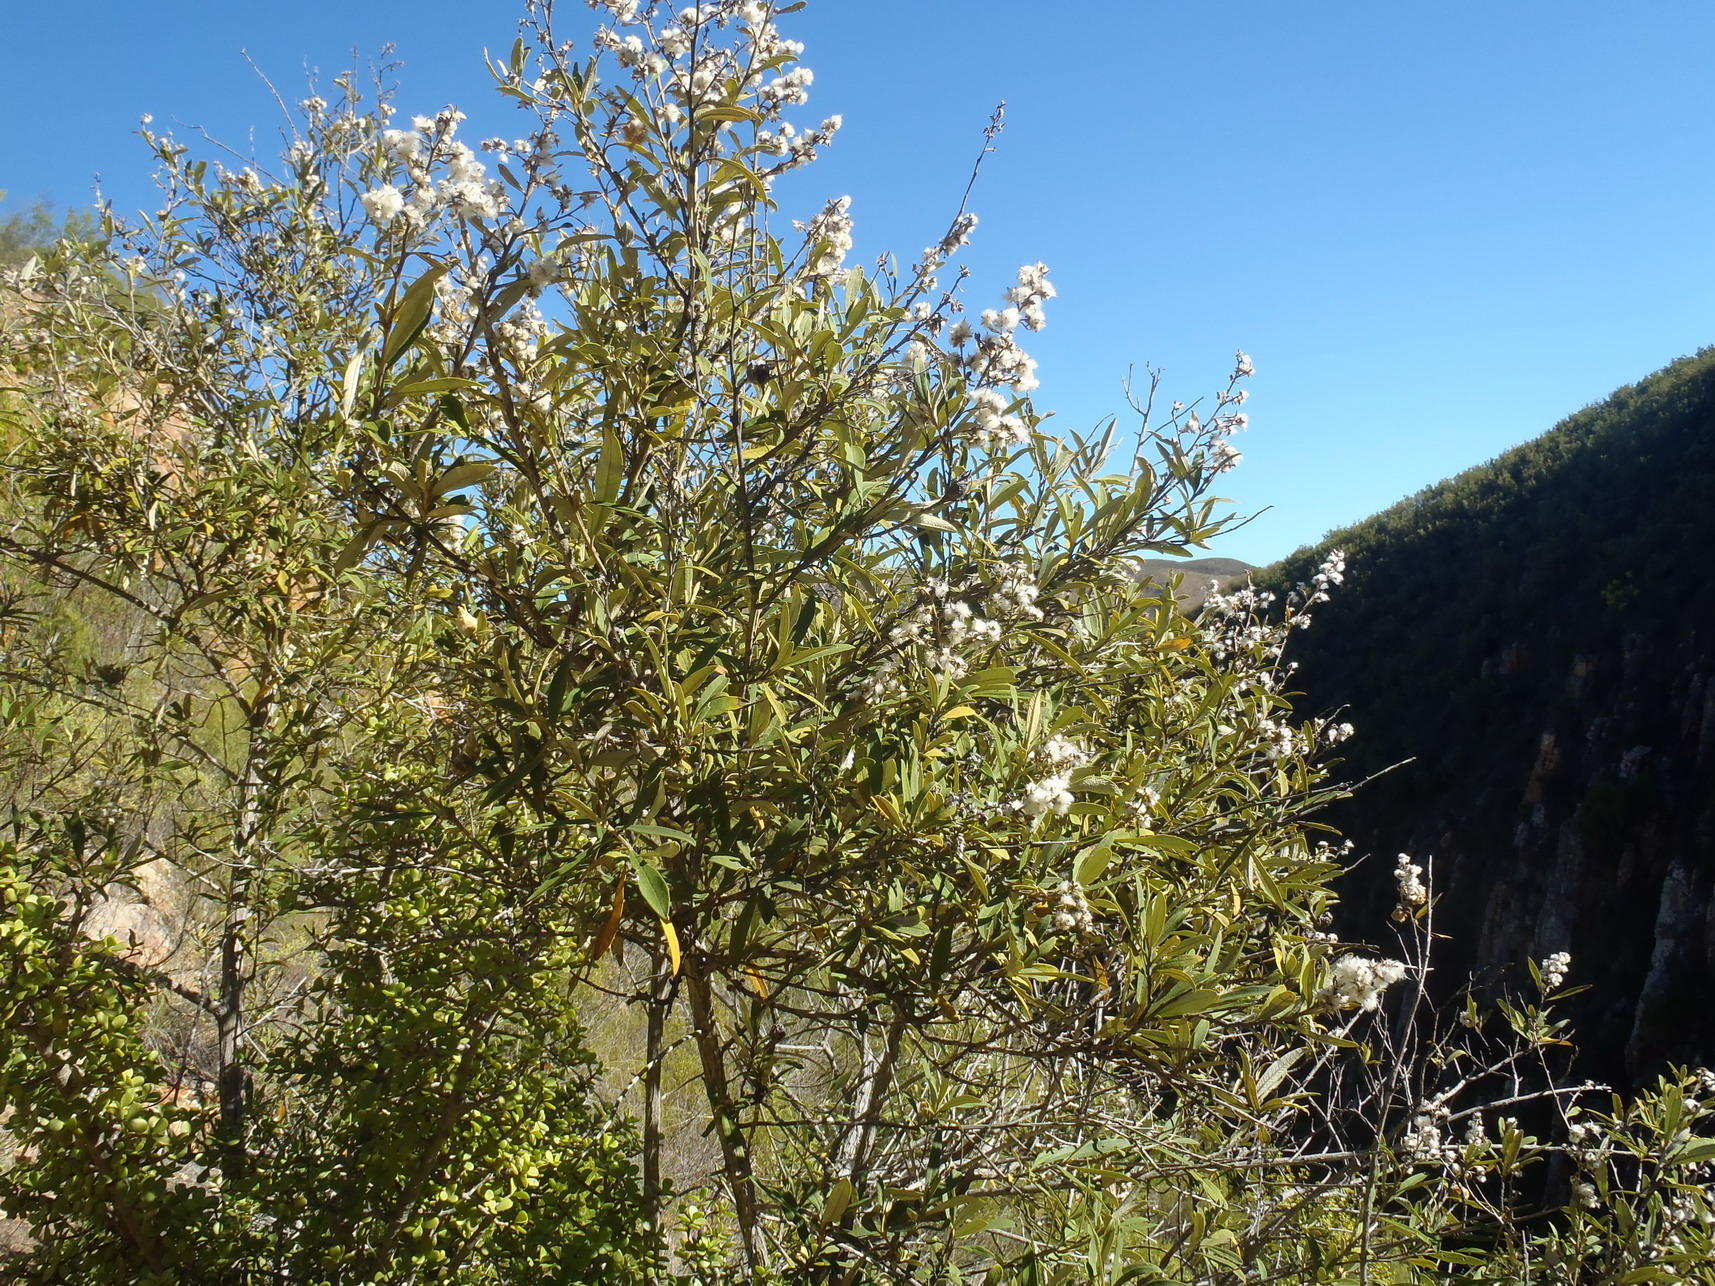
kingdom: Plantae
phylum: Tracheophyta
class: Magnoliopsida
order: Asterales
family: Asteraceae
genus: Tarchonanthus
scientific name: Tarchonanthus littoralis
